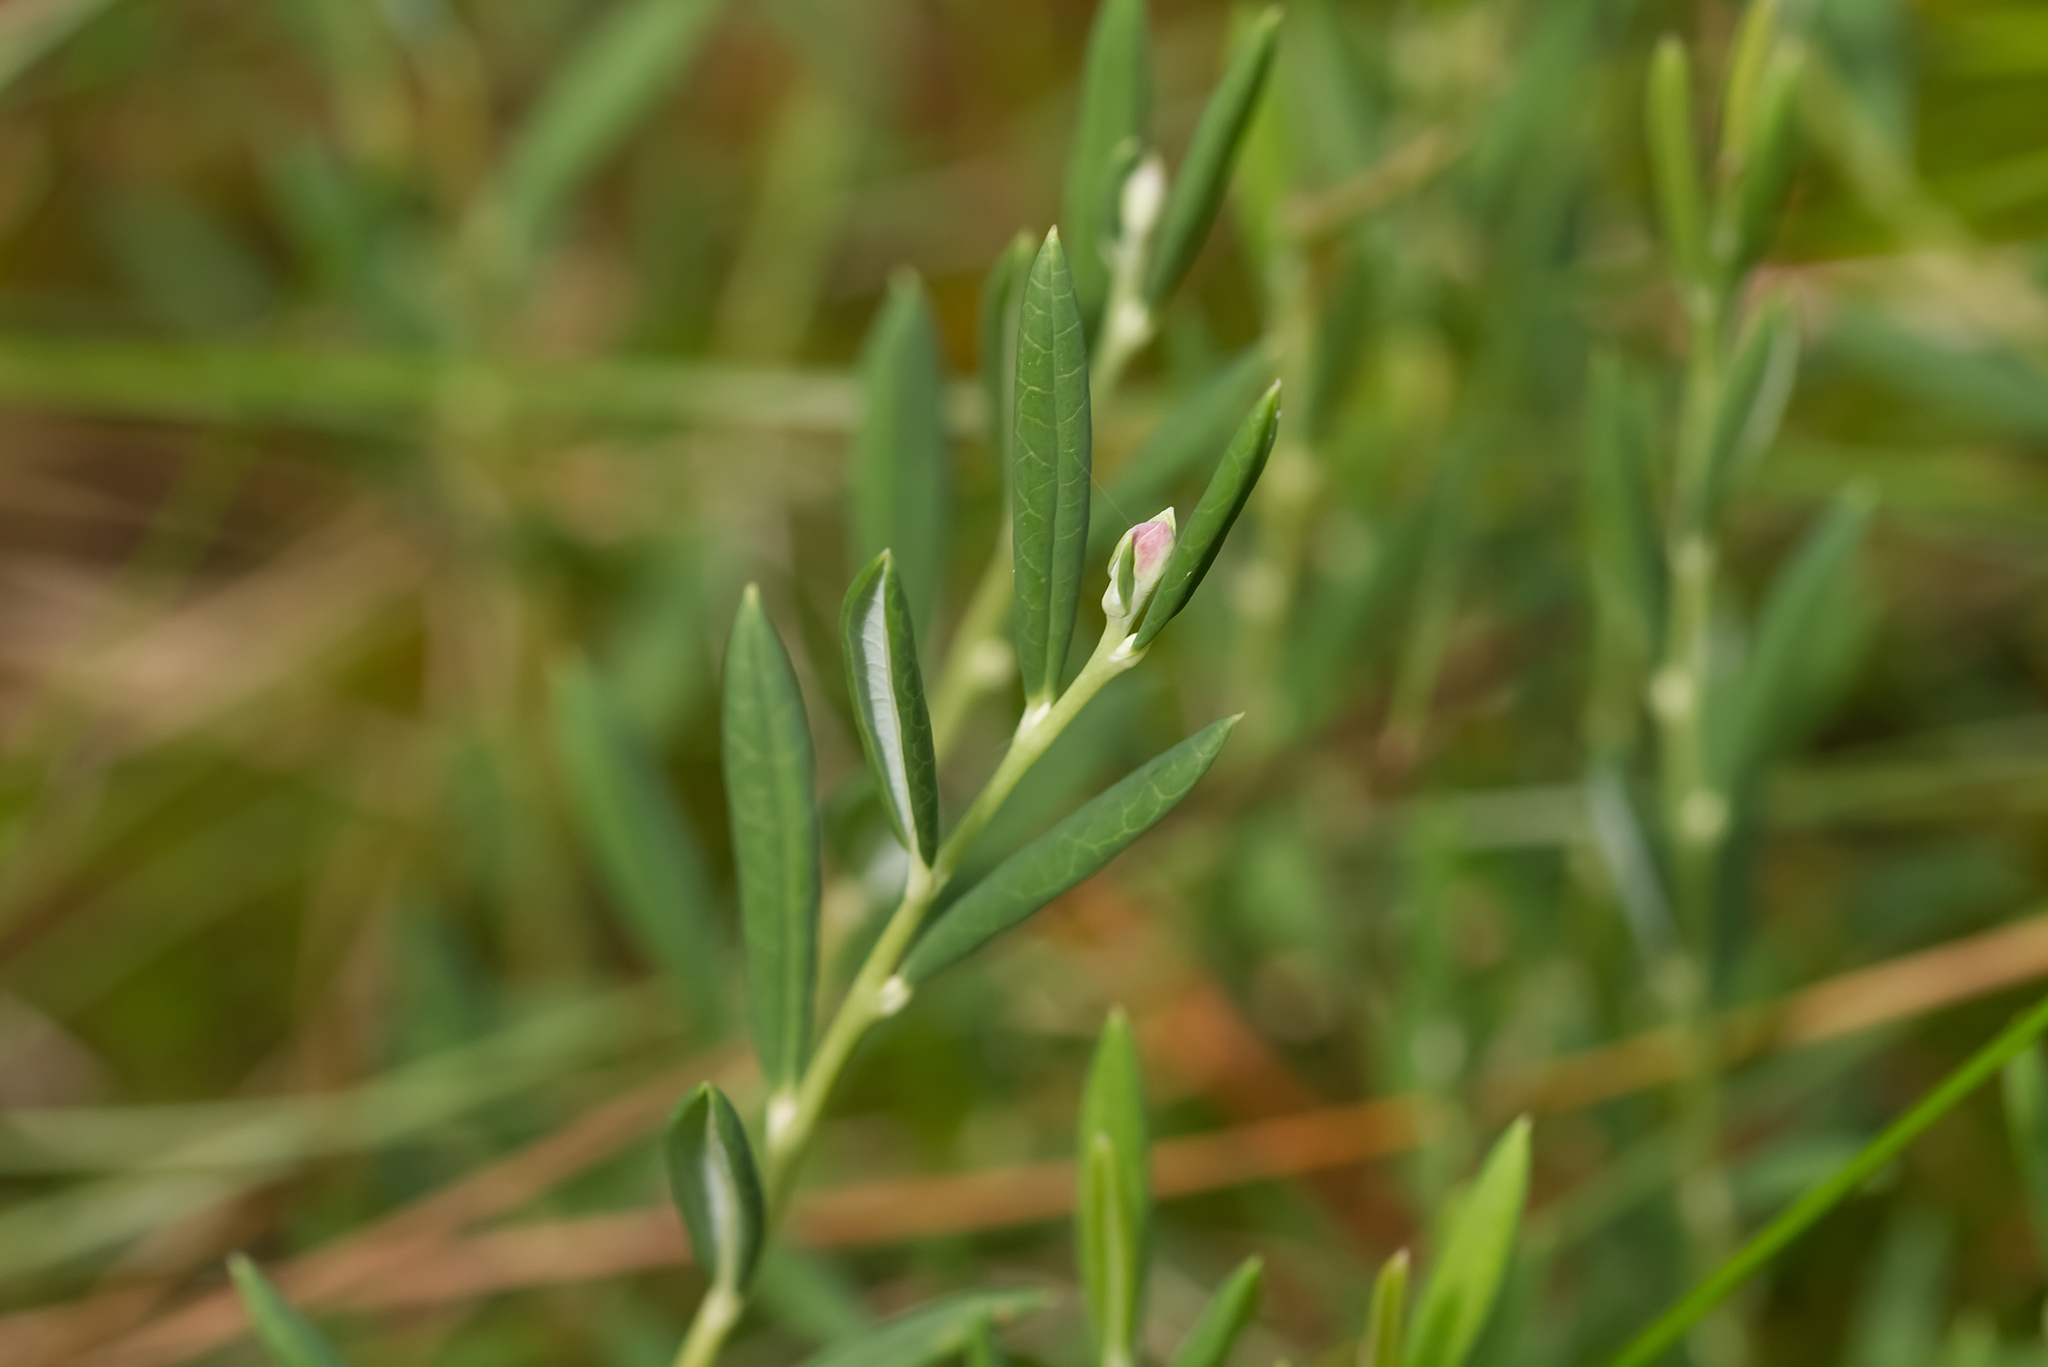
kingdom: Plantae
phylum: Tracheophyta
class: Magnoliopsida
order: Ericales
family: Ericaceae
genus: Andromeda
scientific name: Andromeda polifolia
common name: Bog-rosemary
